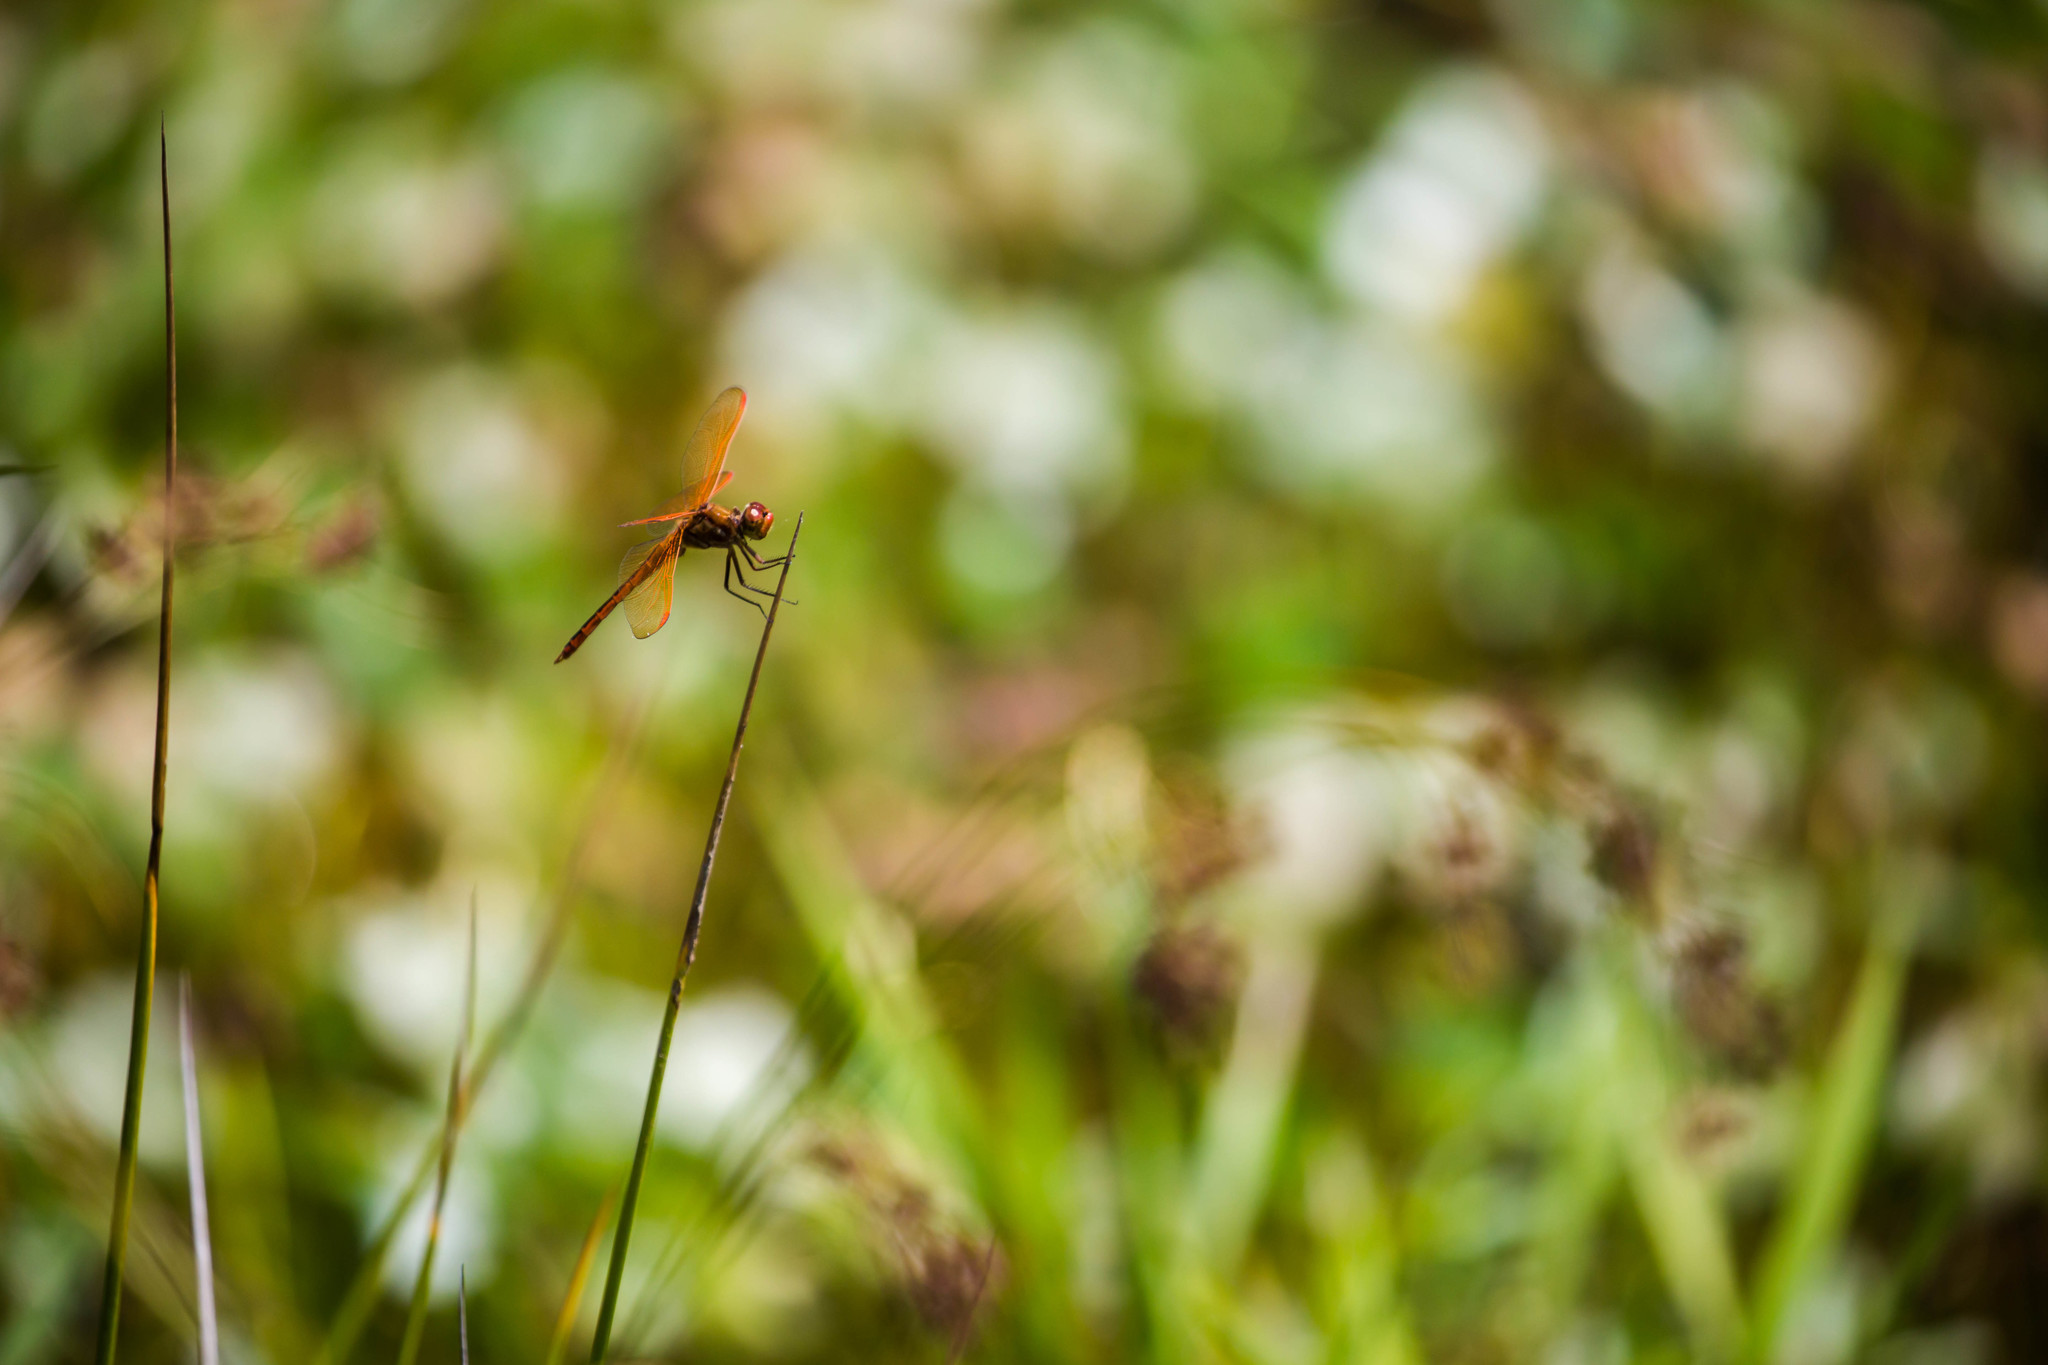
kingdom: Animalia
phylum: Arthropoda
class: Insecta
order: Odonata
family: Libellulidae
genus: Libellula
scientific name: Libellula auripennis
